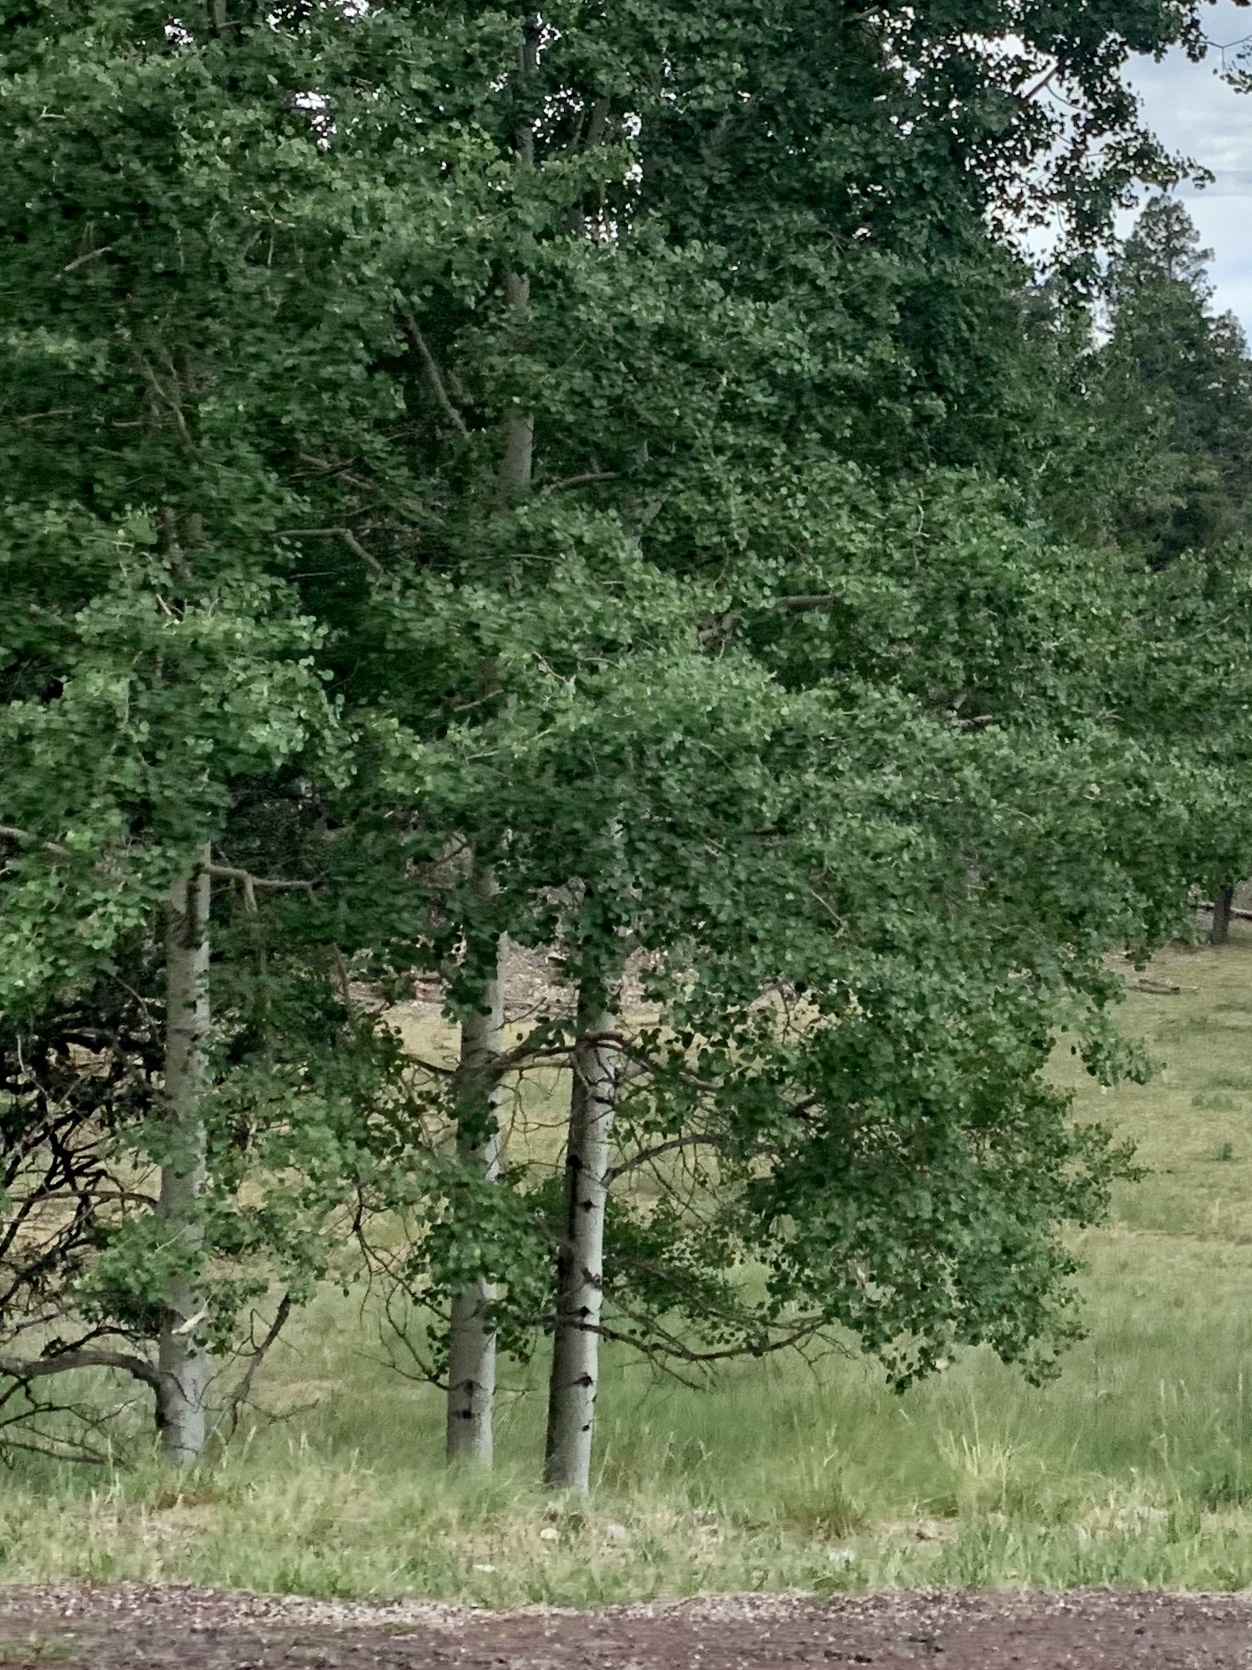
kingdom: Plantae
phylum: Tracheophyta
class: Magnoliopsida
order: Malpighiales
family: Salicaceae
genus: Populus
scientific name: Populus tremuloides
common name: Quaking aspen
